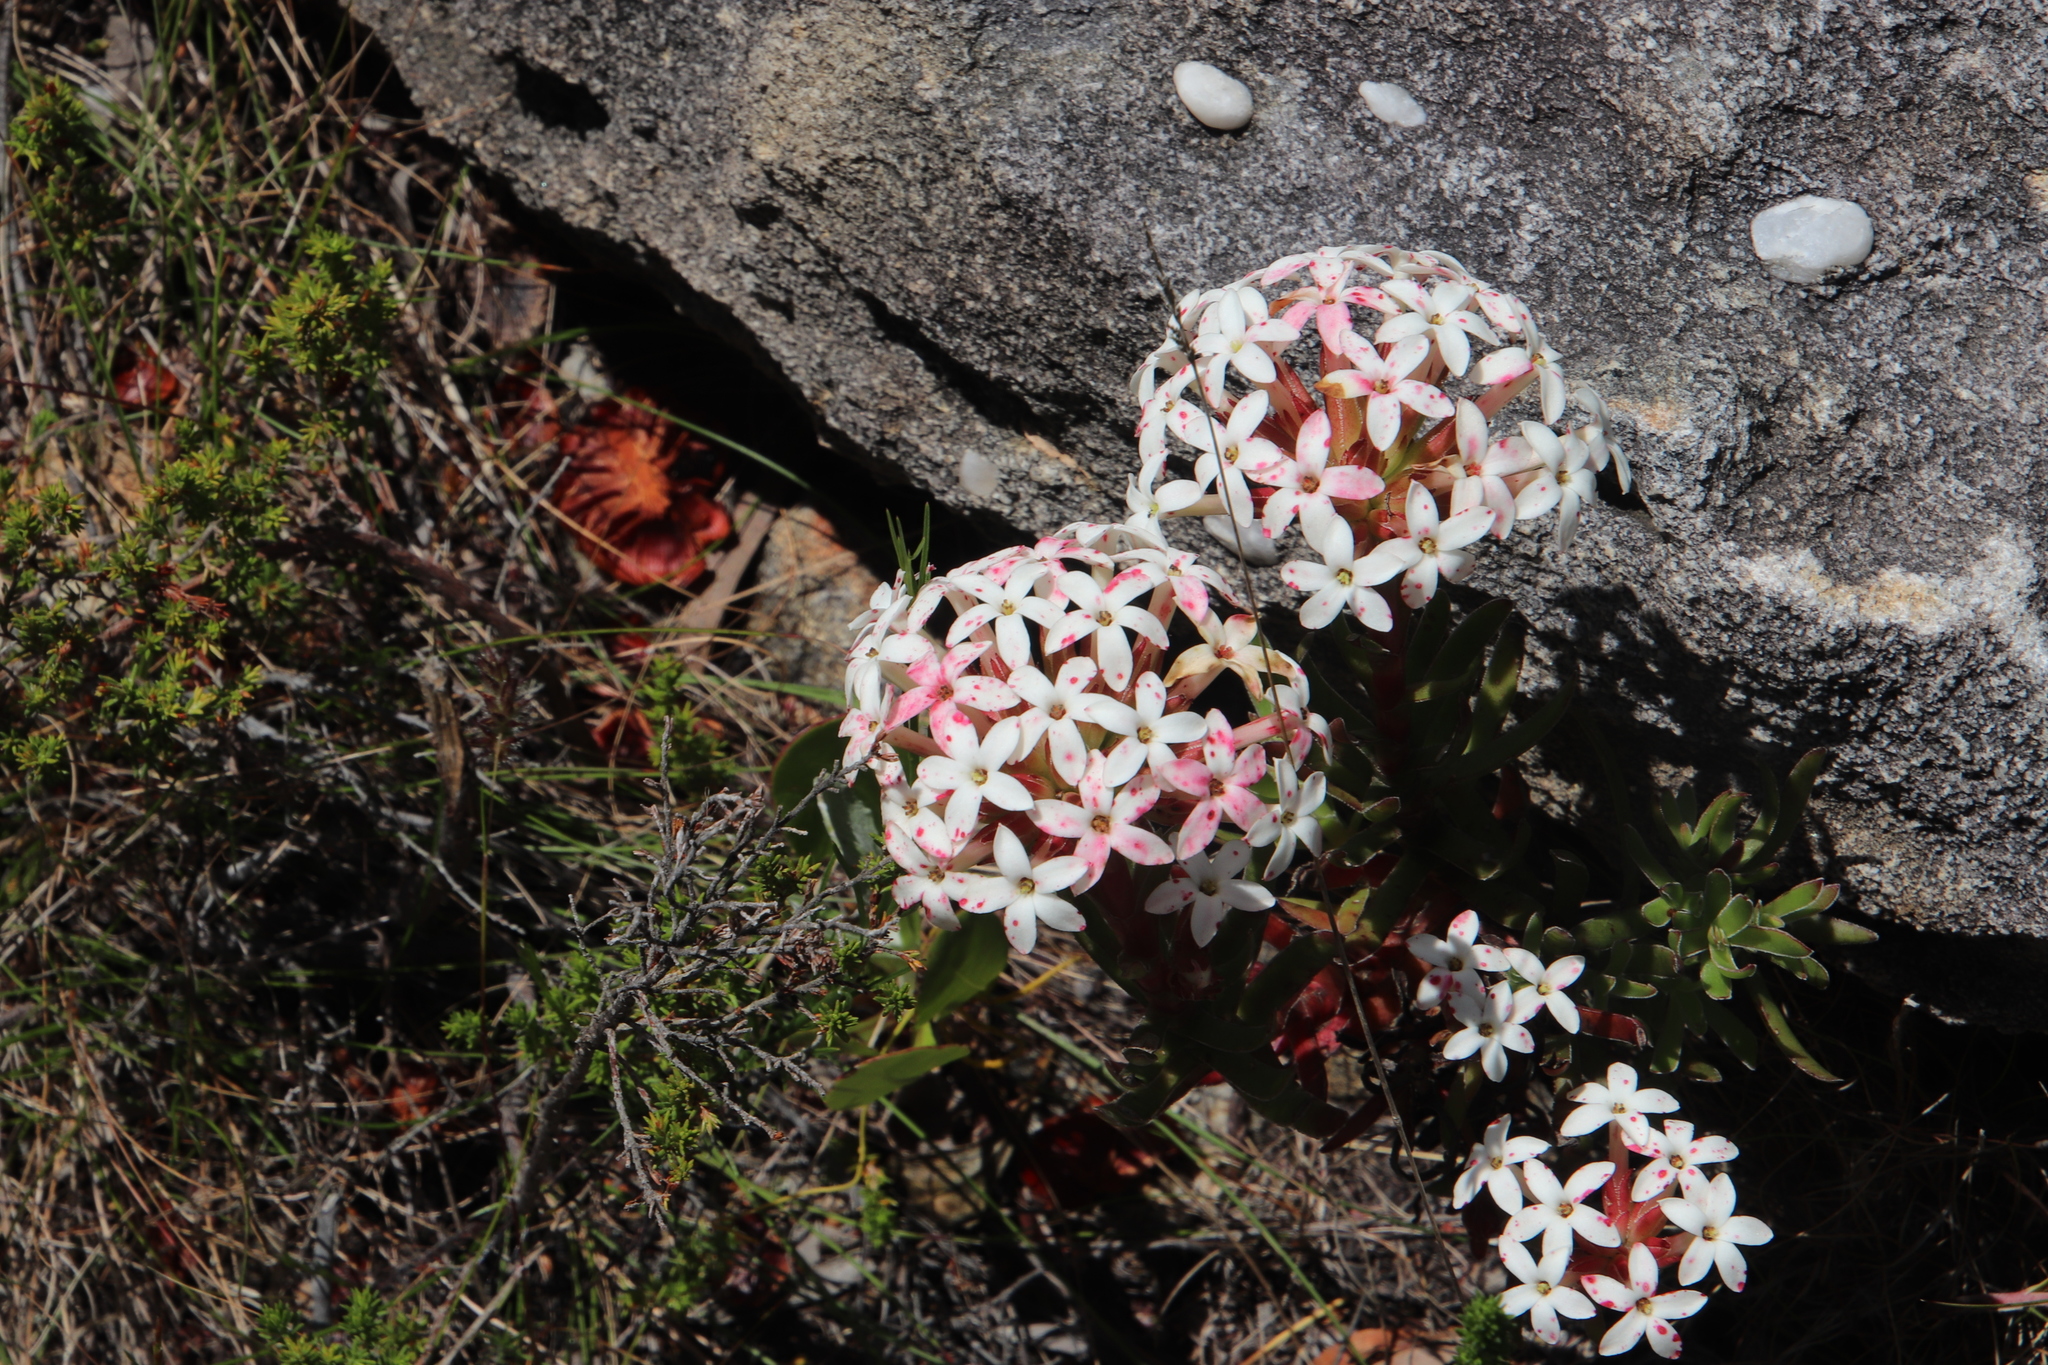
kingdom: Plantae
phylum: Tracheophyta
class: Magnoliopsida
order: Saxifragales
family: Crassulaceae
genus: Crassula
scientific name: Crassula fascicularis
